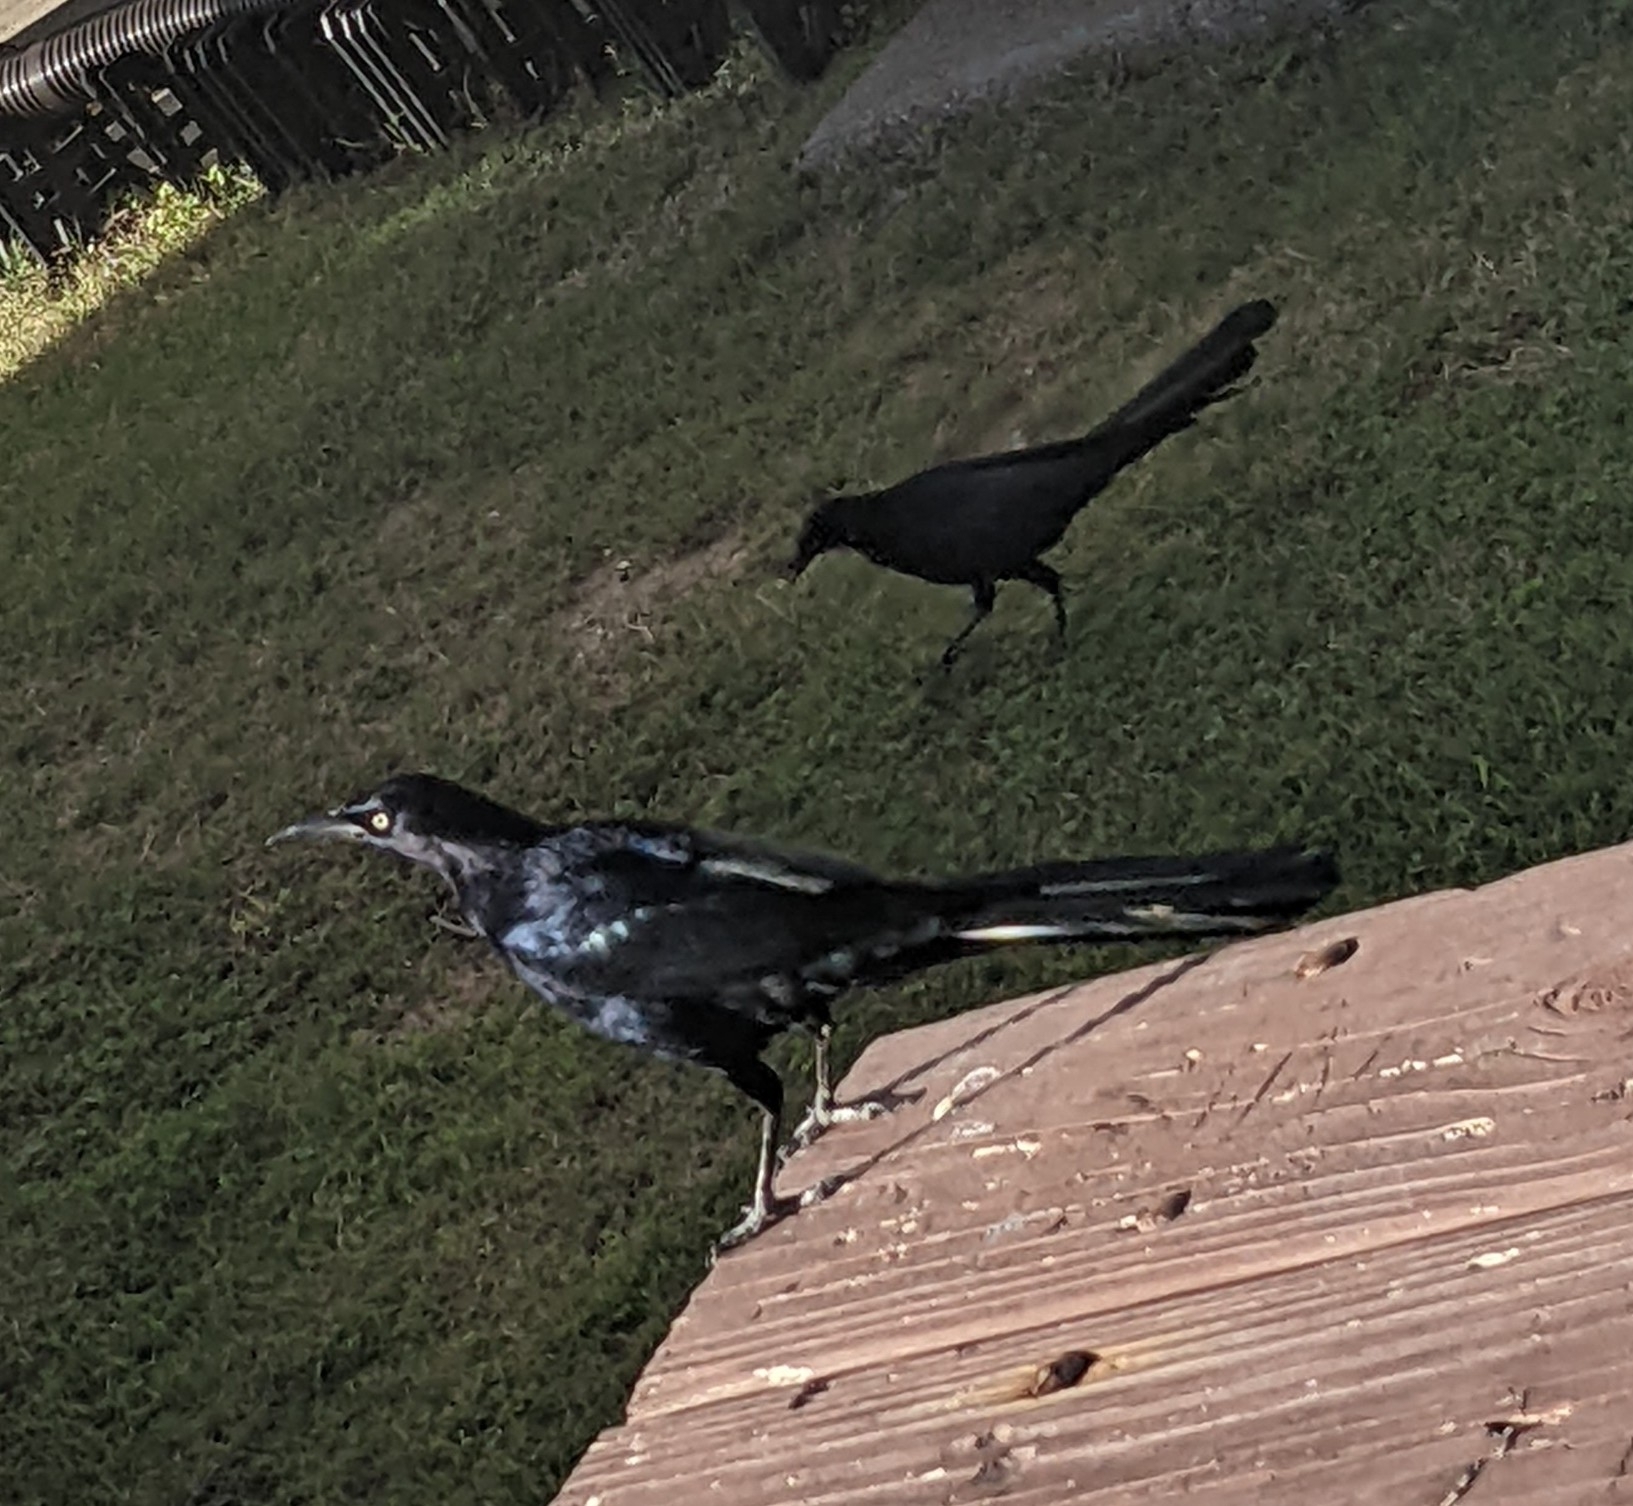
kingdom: Animalia
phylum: Chordata
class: Aves
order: Passeriformes
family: Icteridae
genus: Quiscalus
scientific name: Quiscalus mexicanus
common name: Great-tailed grackle
